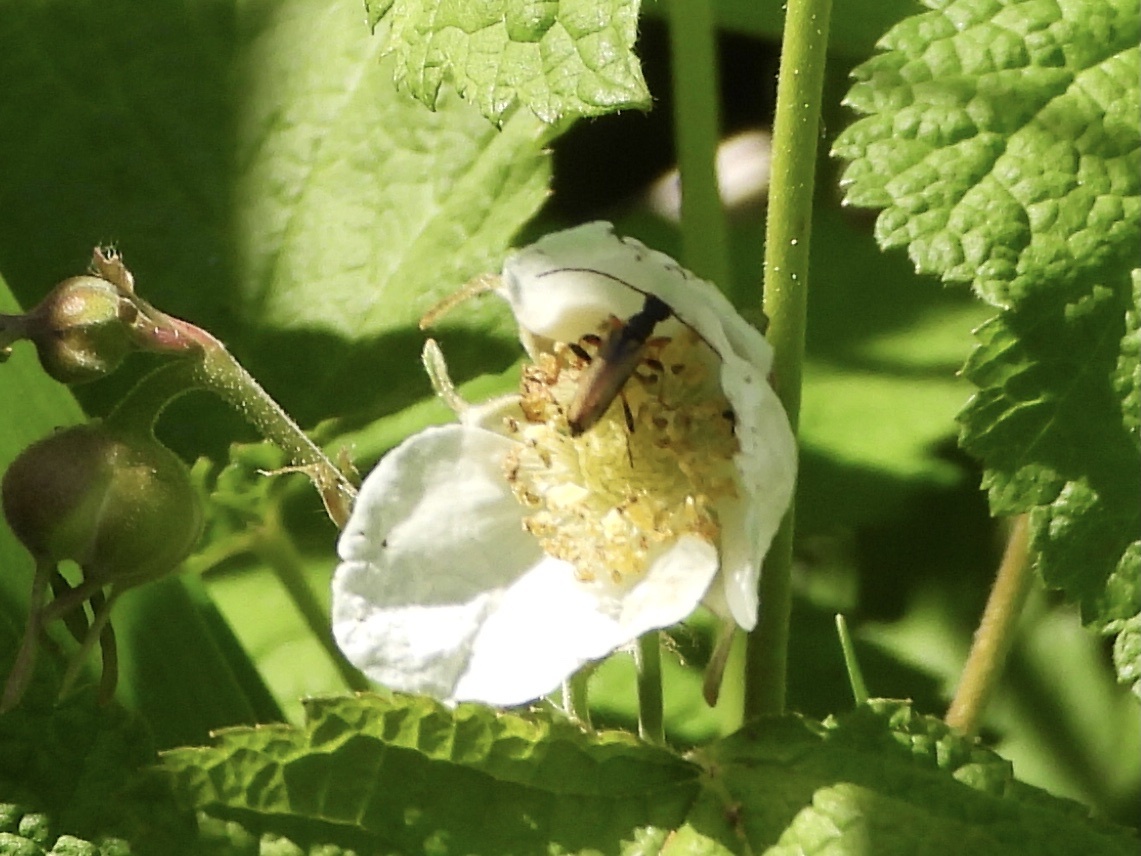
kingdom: Animalia
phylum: Arthropoda
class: Insecta
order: Coleoptera
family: Cerambycidae
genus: Pidonia
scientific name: Pidonia scripta
